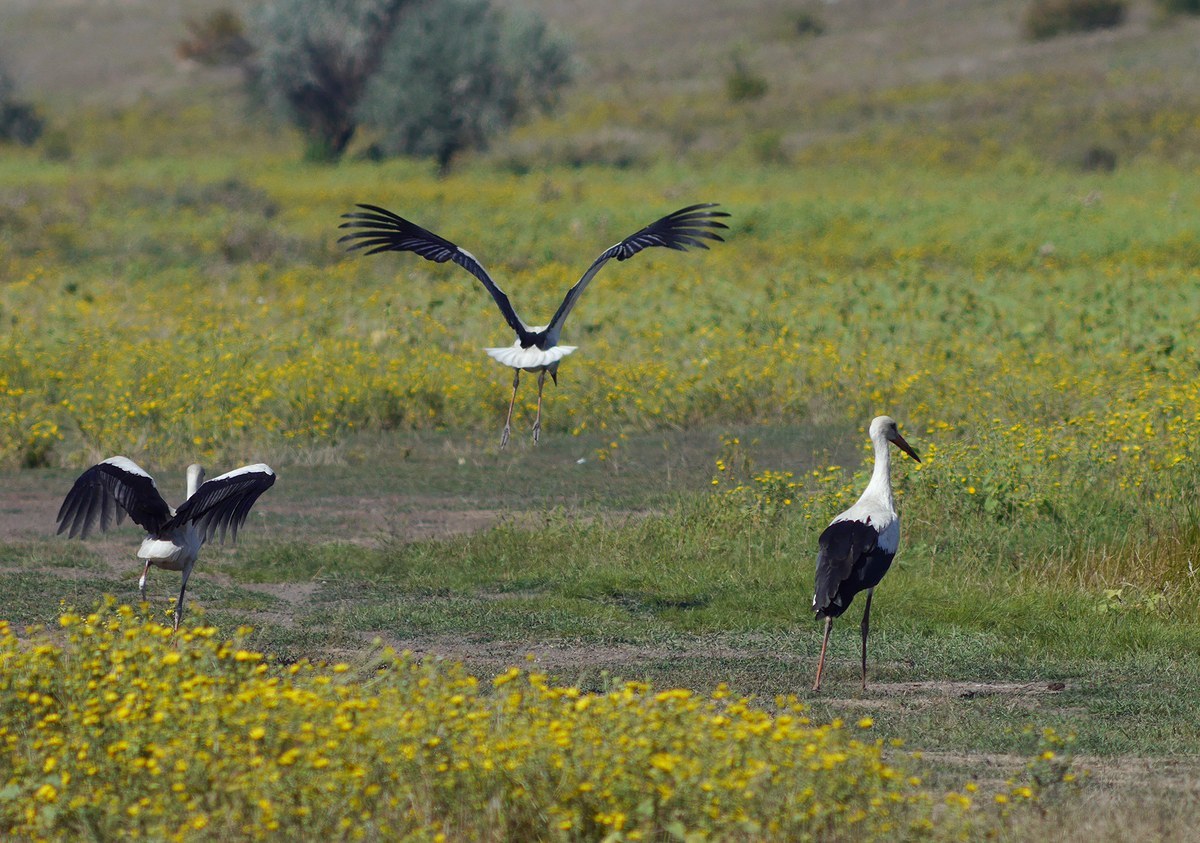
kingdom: Animalia
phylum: Chordata
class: Aves
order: Ciconiiformes
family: Ciconiidae
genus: Ciconia
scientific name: Ciconia ciconia
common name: White stork
